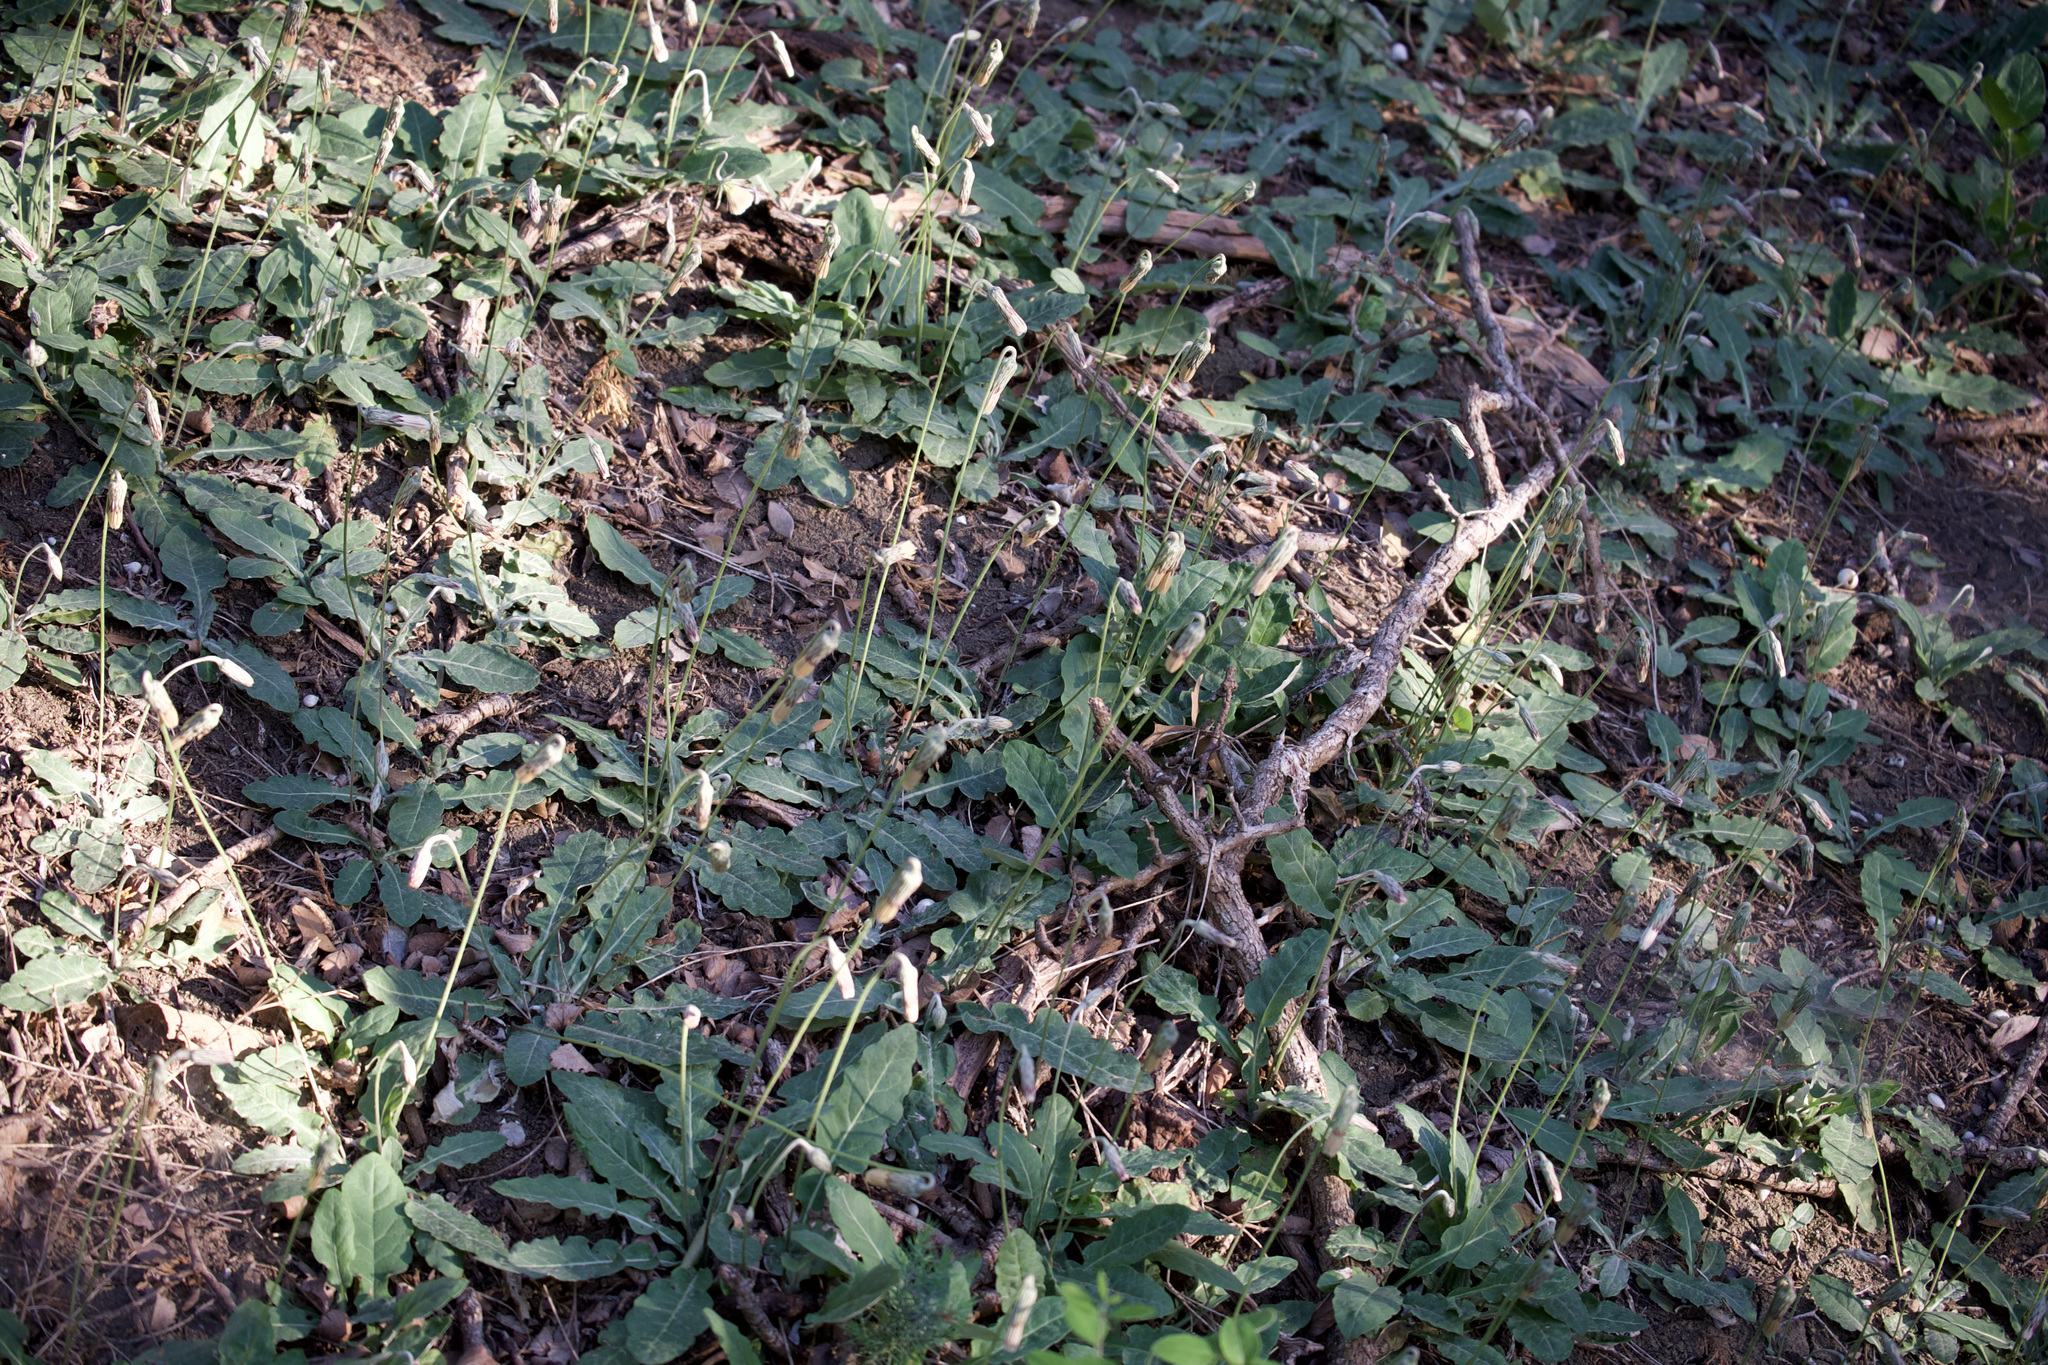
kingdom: Plantae
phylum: Tracheophyta
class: Magnoliopsida
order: Asterales
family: Asteraceae
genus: Chaptalia
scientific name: Chaptalia texana
